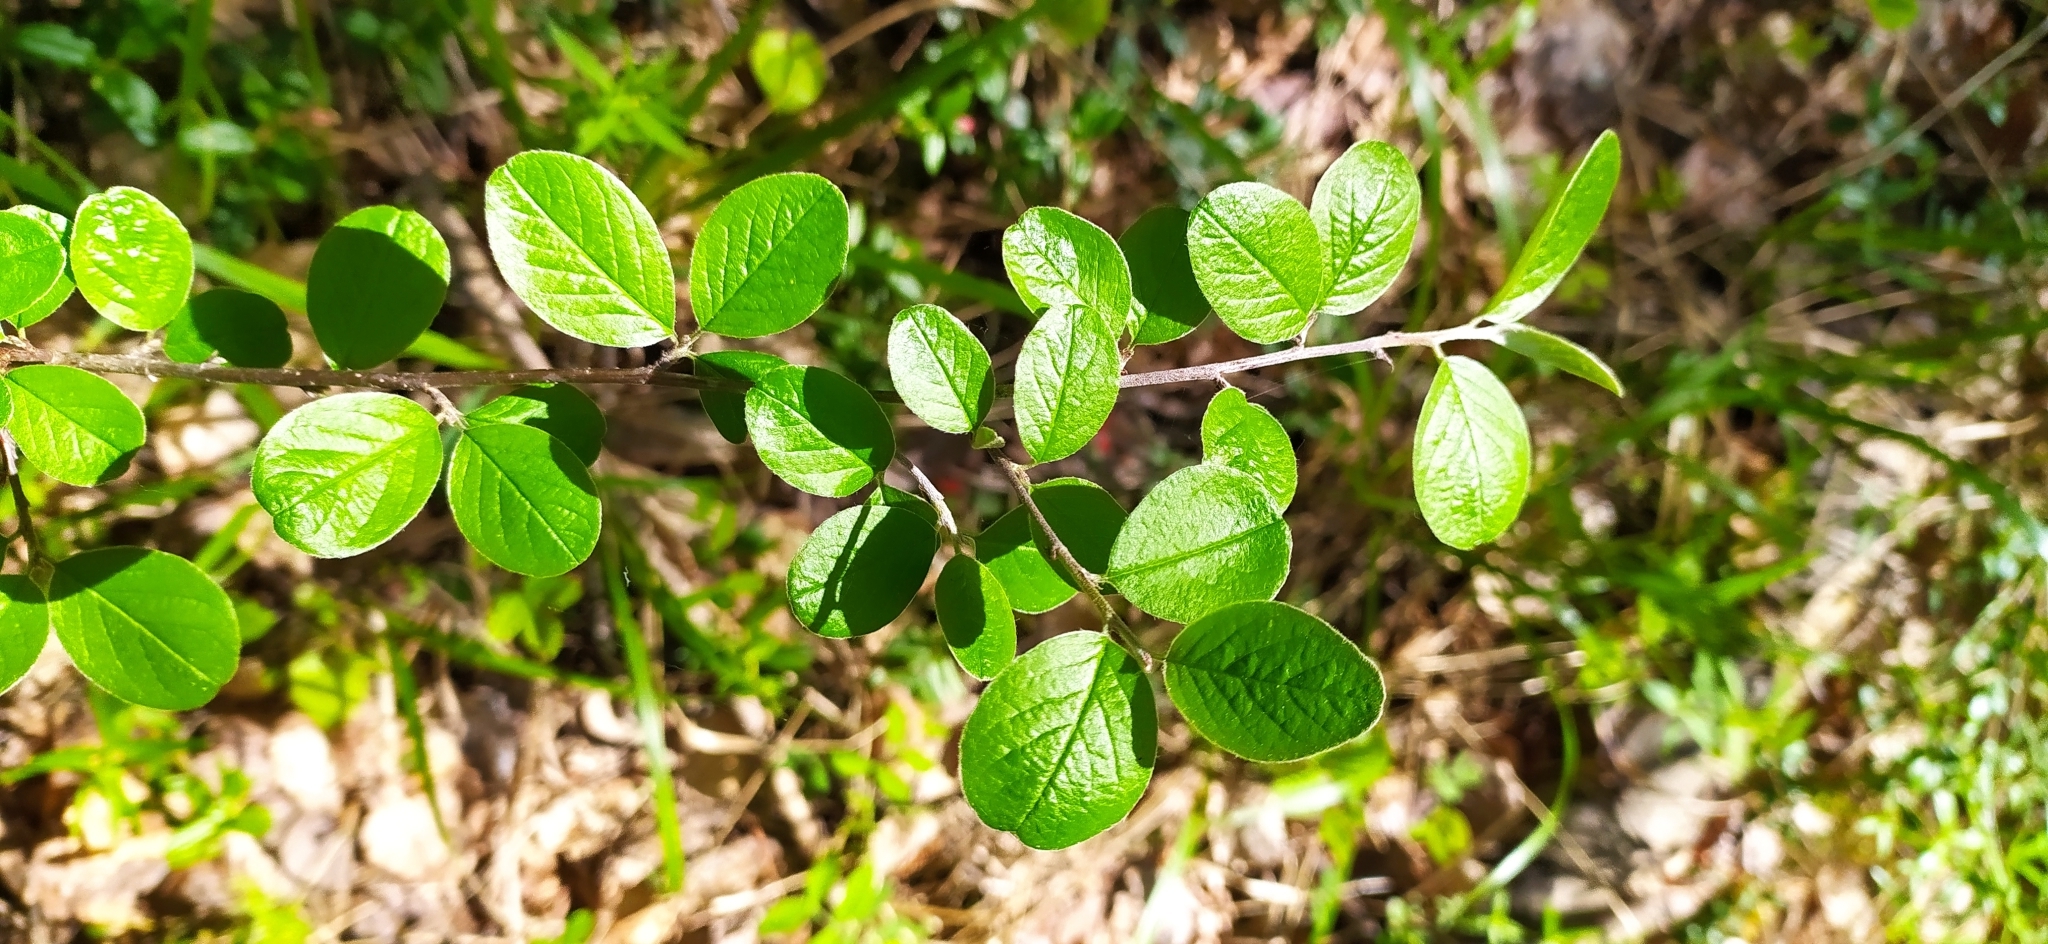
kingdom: Plantae
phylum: Tracheophyta
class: Magnoliopsida
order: Rosales
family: Rosaceae
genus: Cotoneaster
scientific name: Cotoneaster melanocarpus
